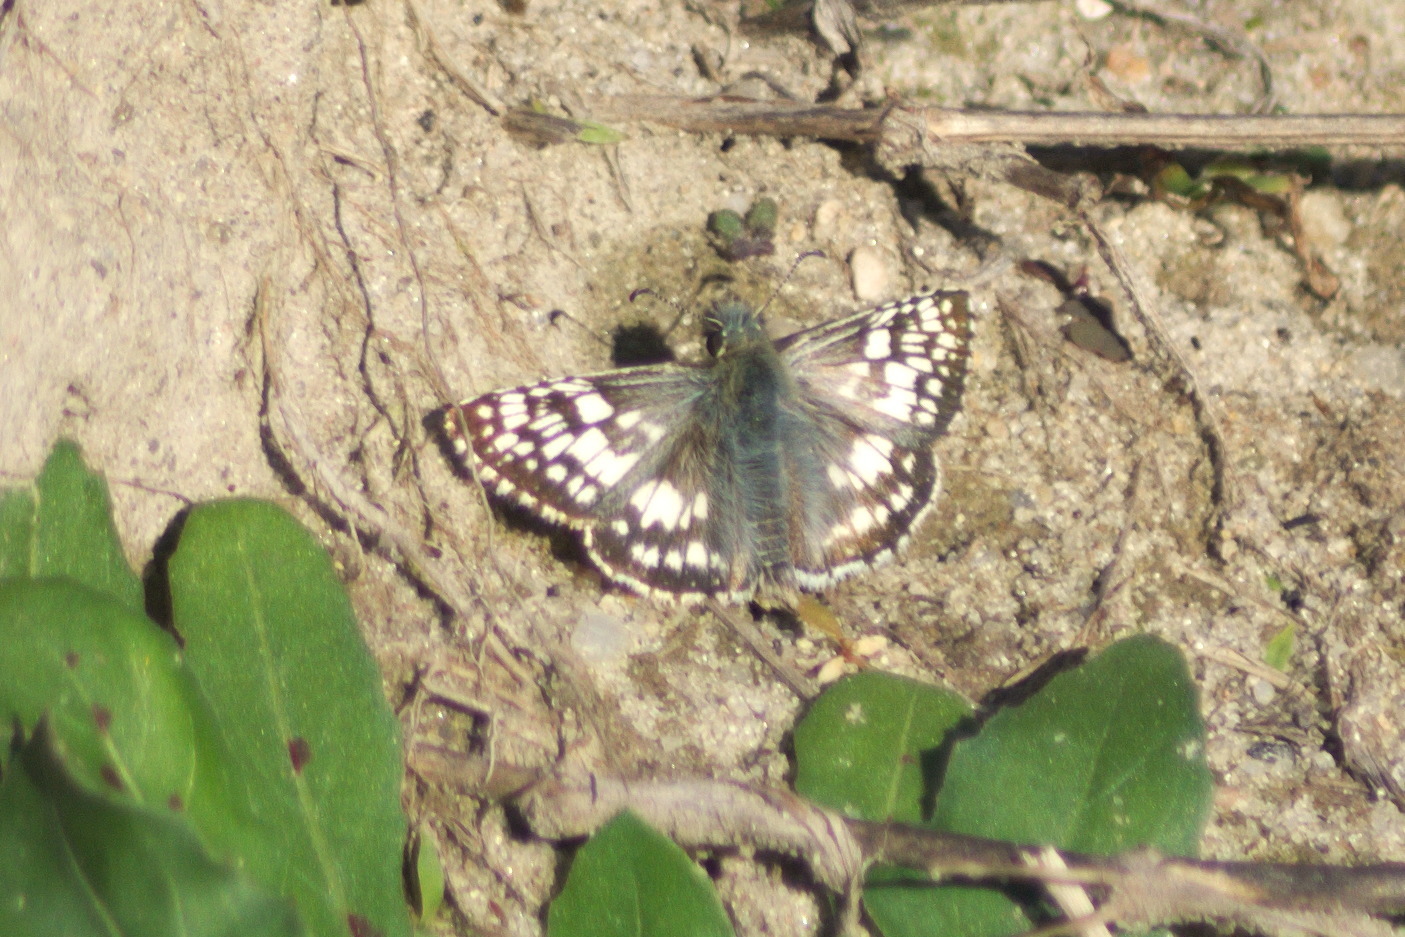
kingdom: Animalia
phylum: Arthropoda
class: Insecta
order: Lepidoptera
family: Hesperiidae
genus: Burnsius
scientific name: Burnsius communis
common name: Common checkered-skipper
